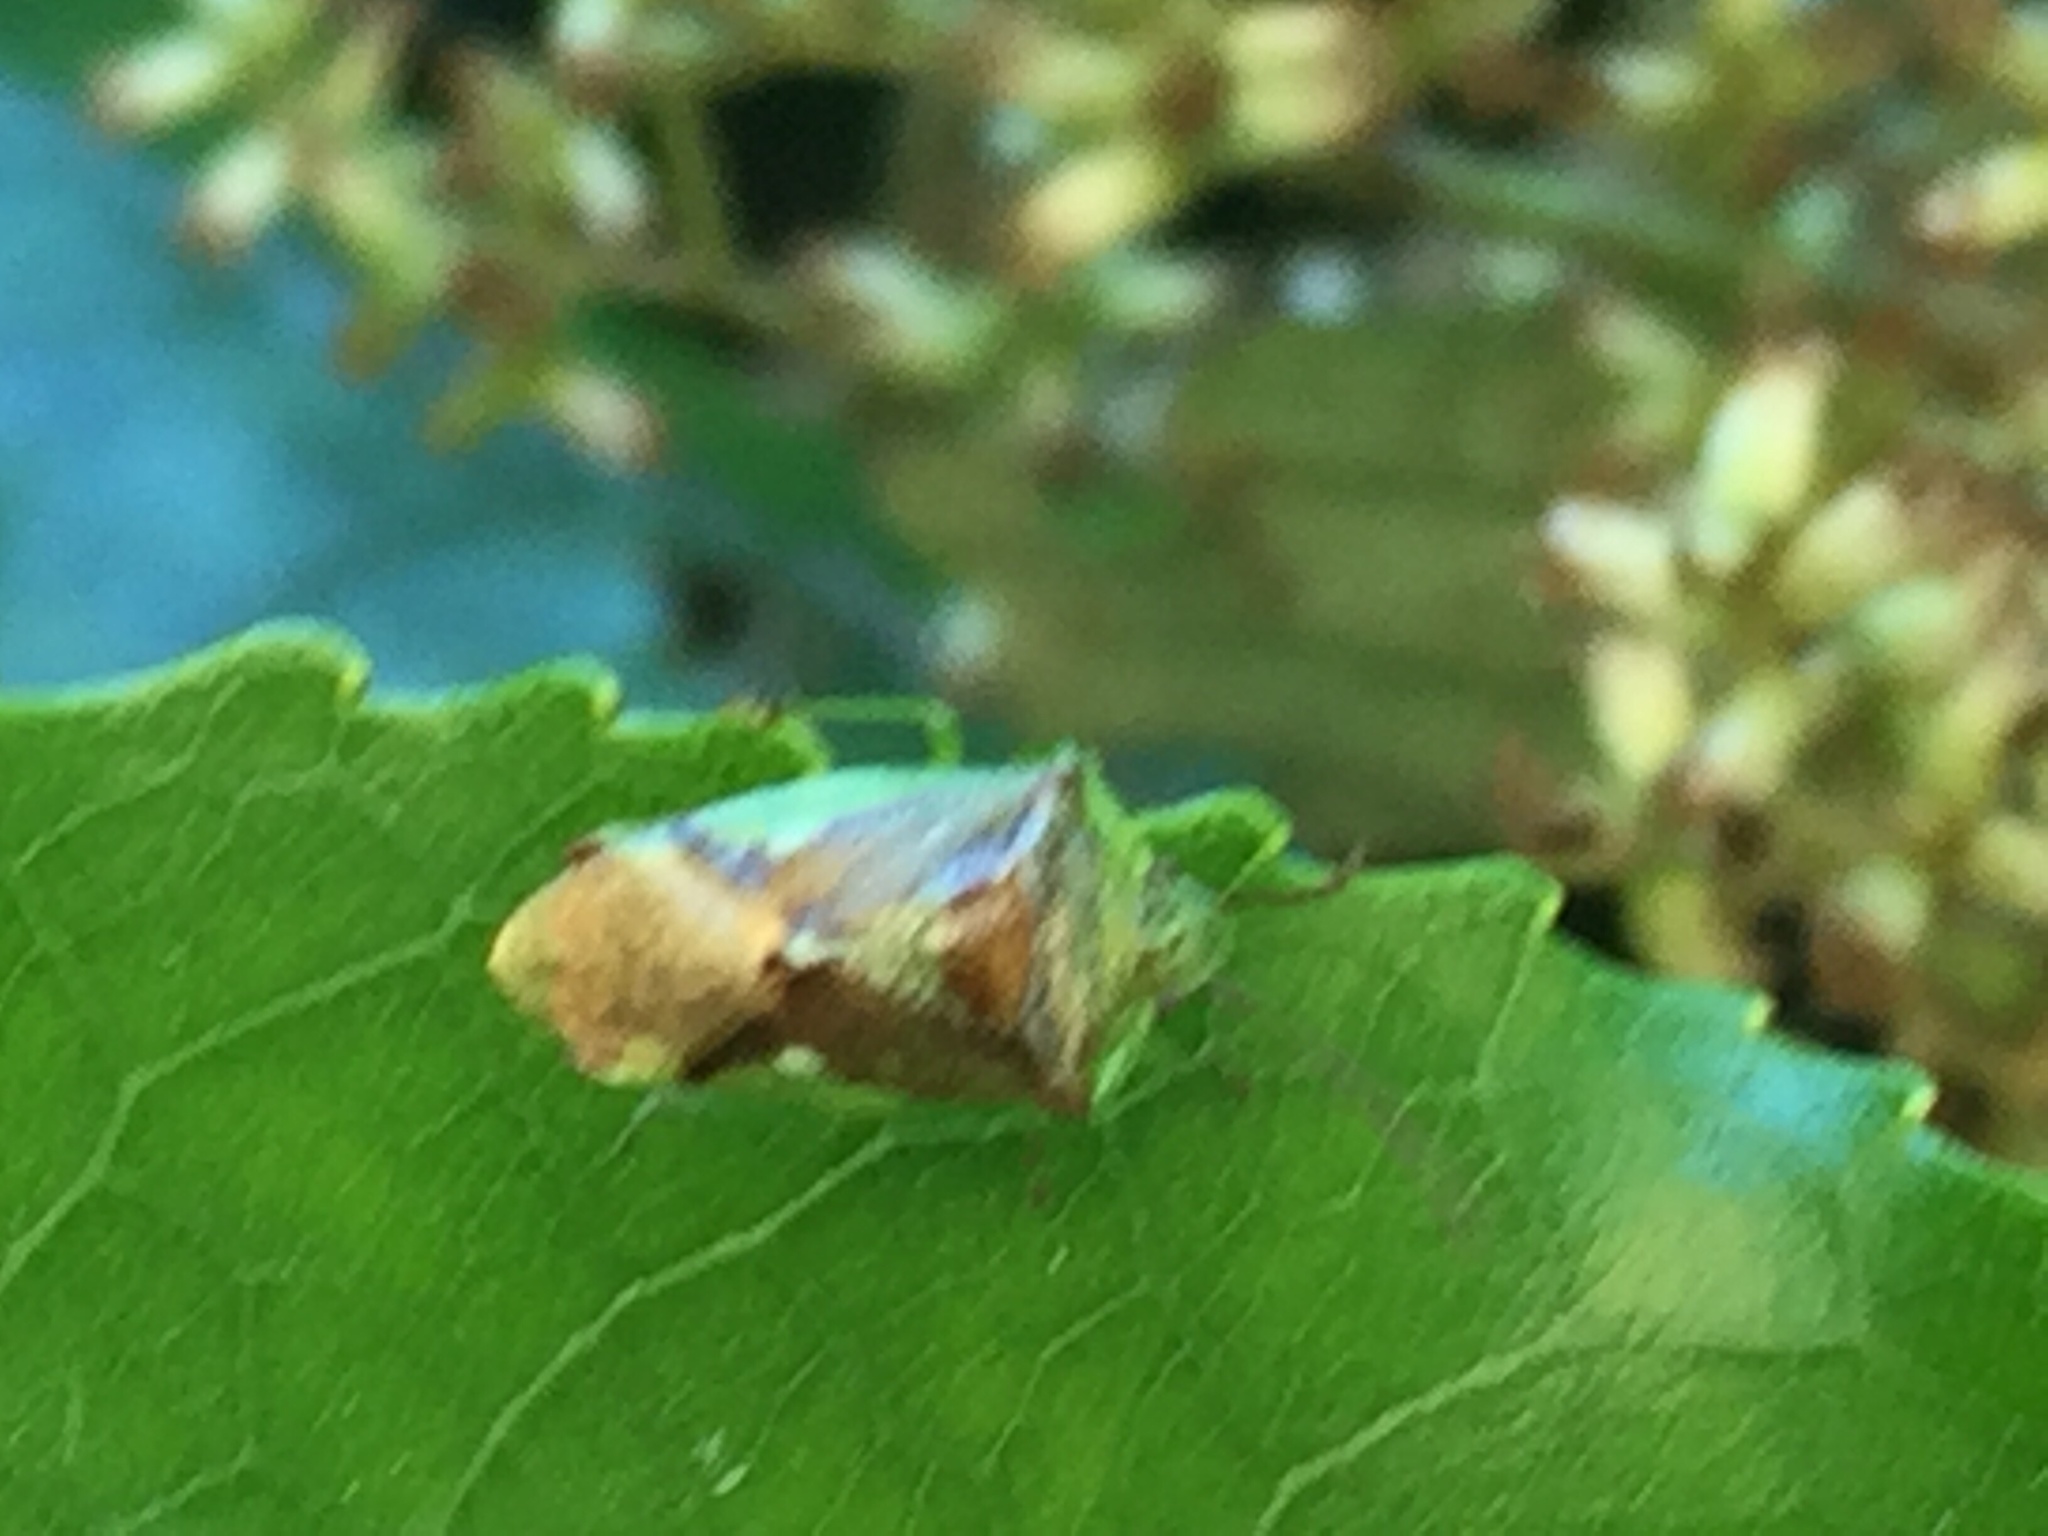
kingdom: Animalia
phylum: Arthropoda
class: Insecta
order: Hemiptera
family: Acanthosomatidae
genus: Oncacontias
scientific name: Oncacontias vittatus
